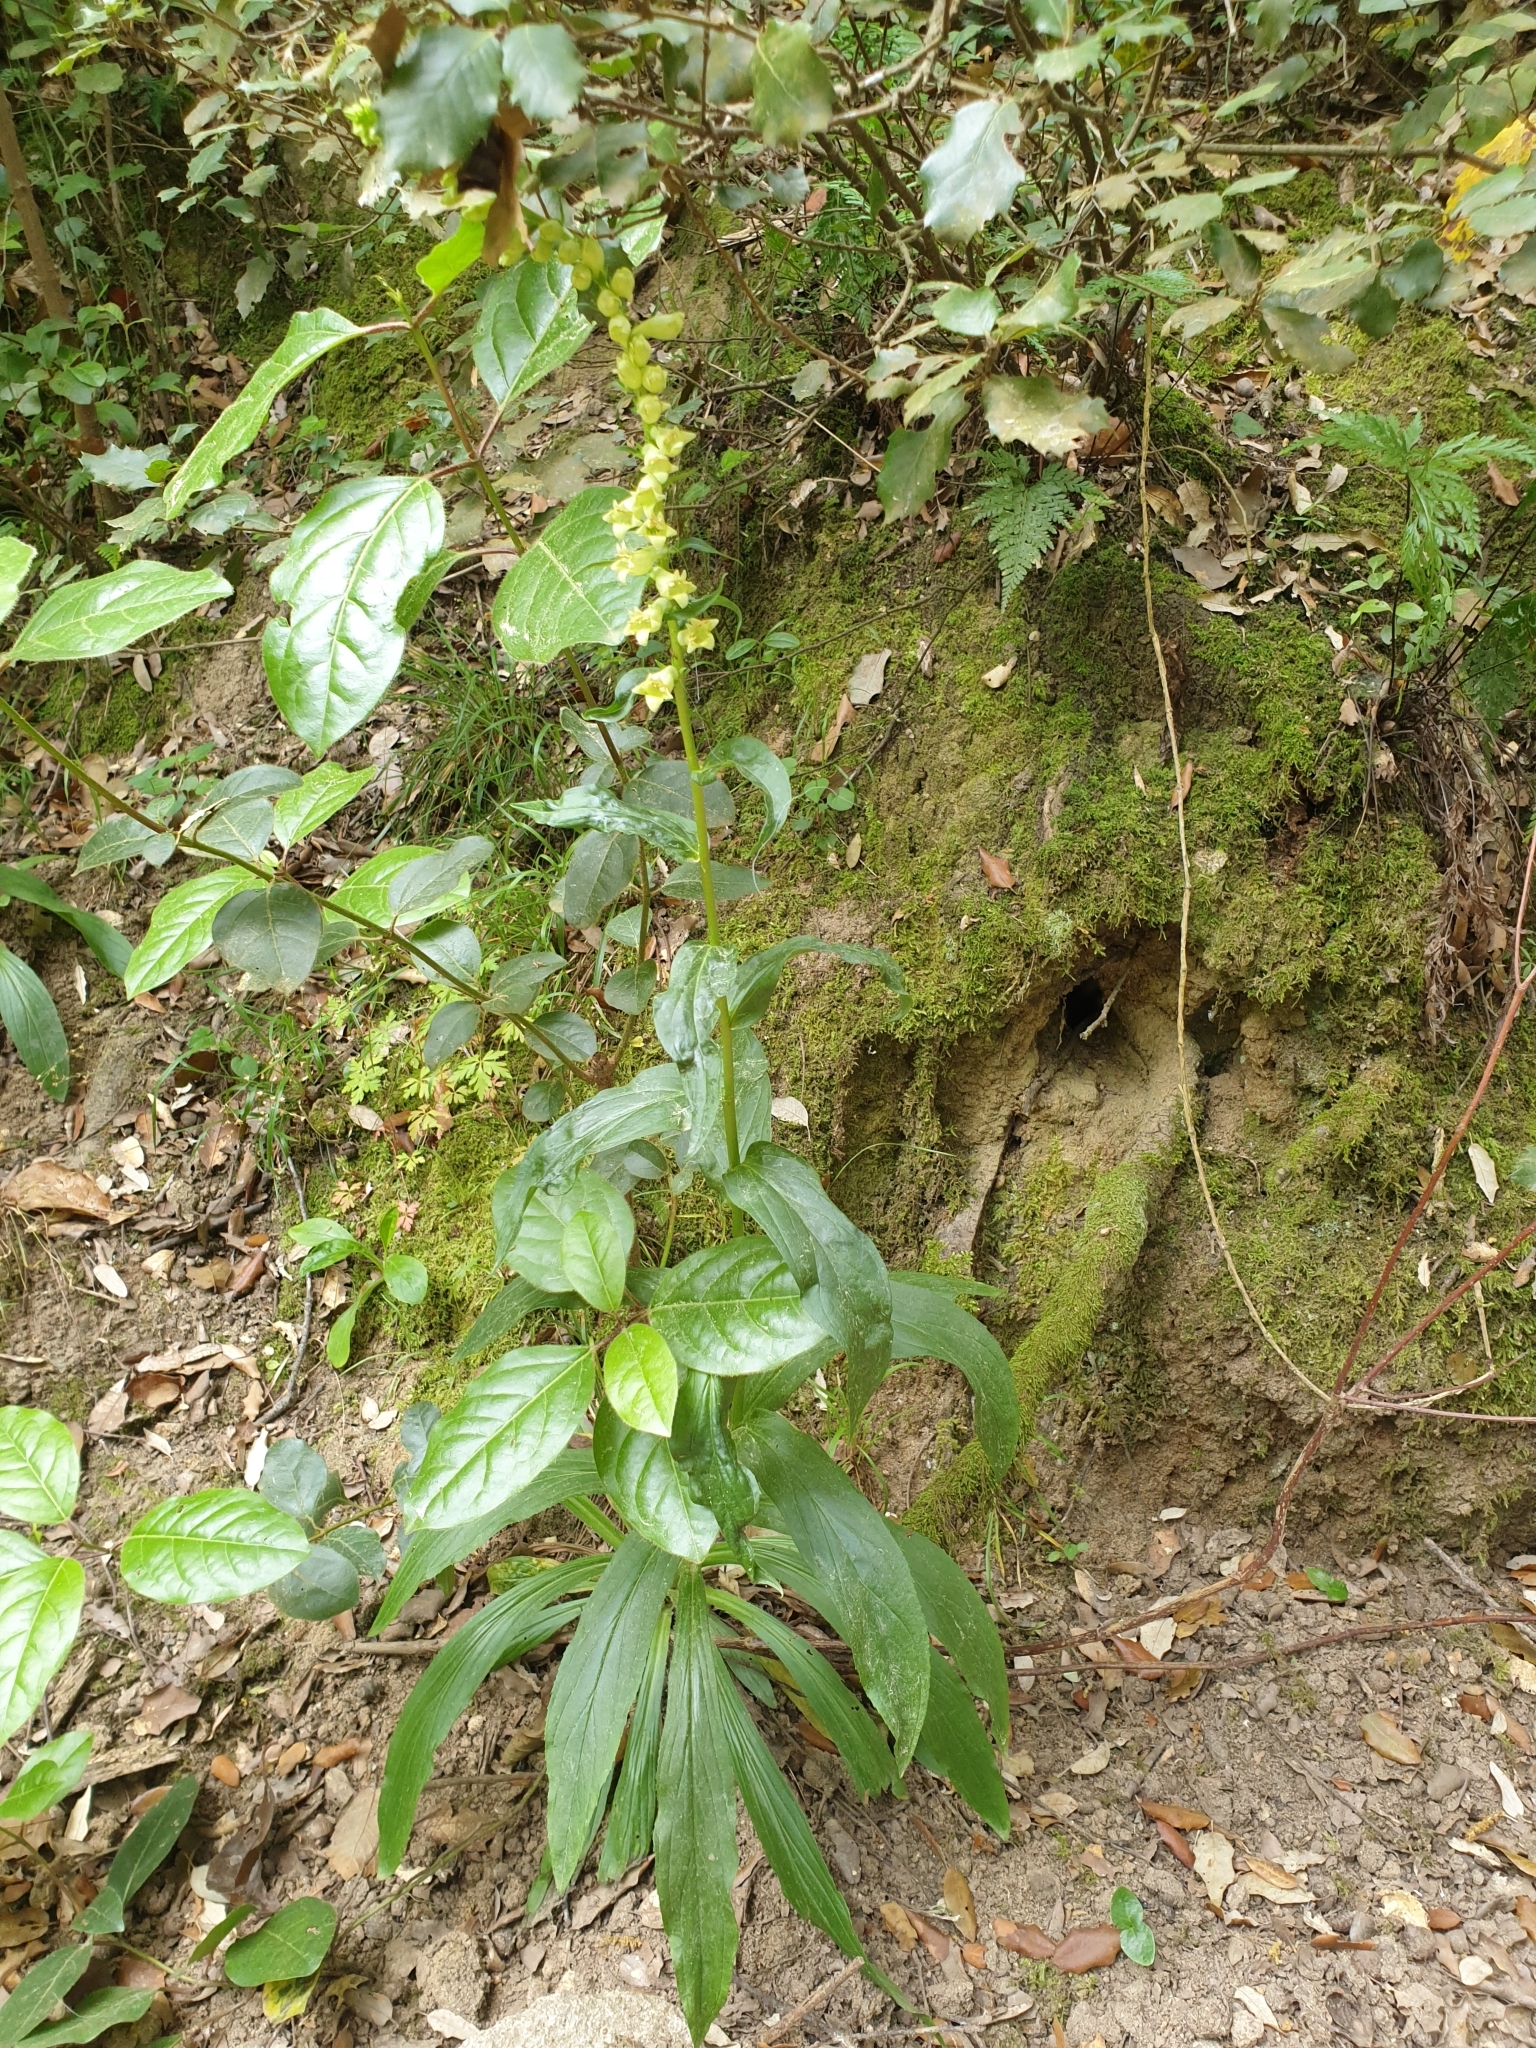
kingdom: Plantae
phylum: Tracheophyta
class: Magnoliopsida
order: Lamiales
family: Plantaginaceae
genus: Digitalis
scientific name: Digitalis lutea
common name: Straw foxglove
